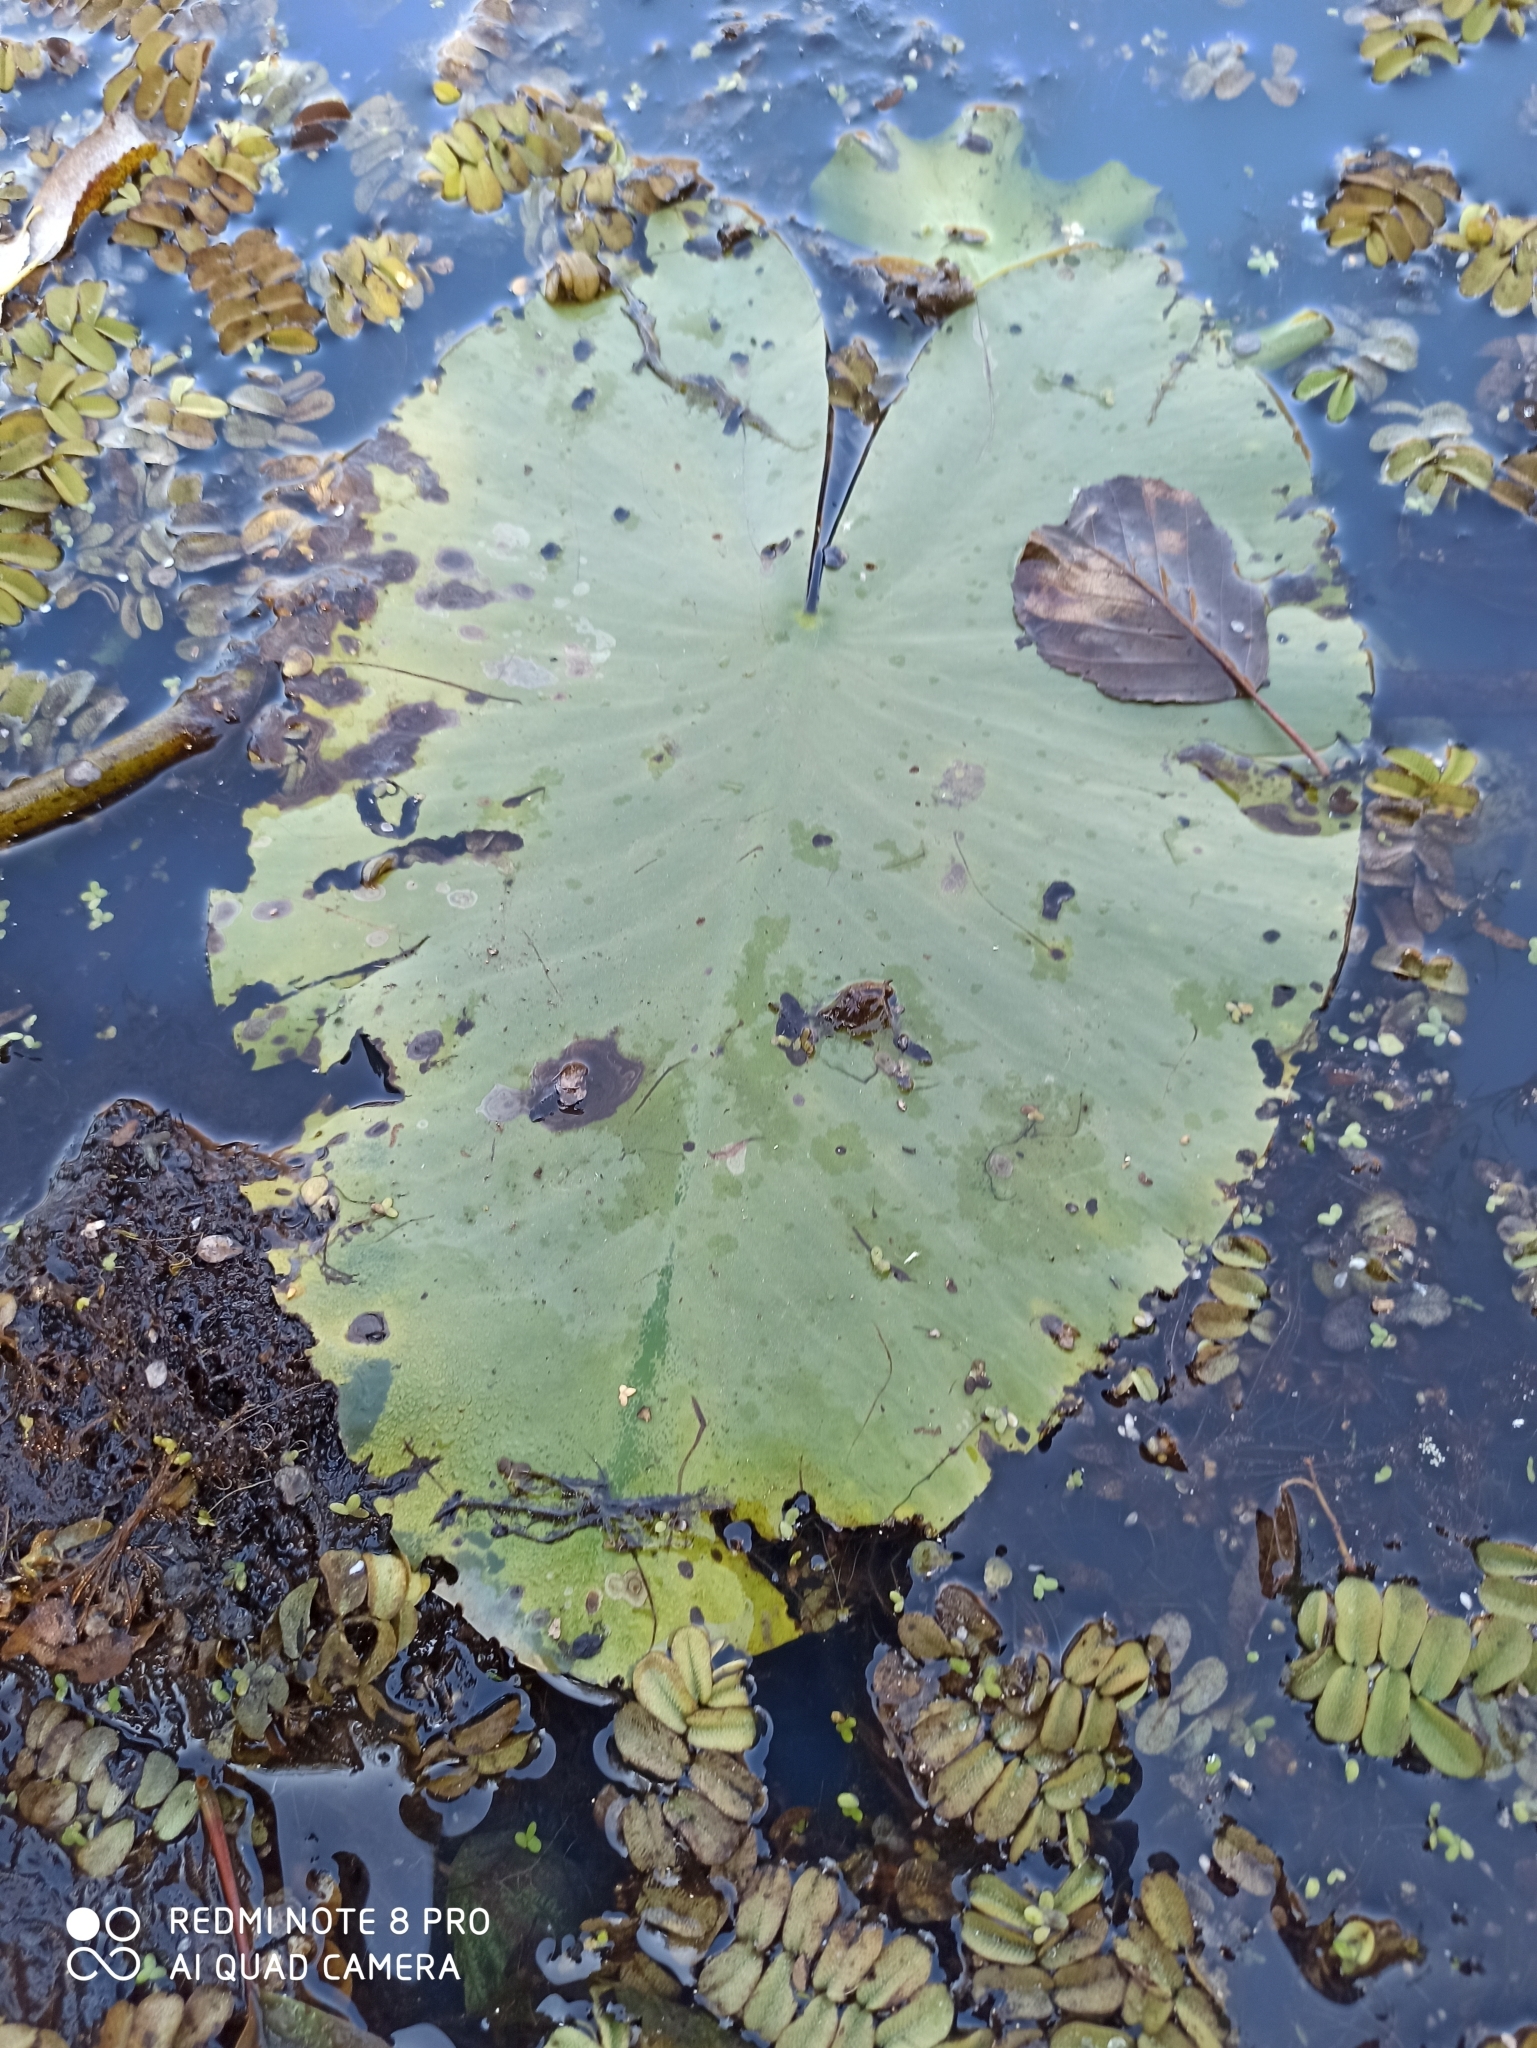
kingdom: Plantae
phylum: Tracheophyta
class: Magnoliopsida
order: Nymphaeales
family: Nymphaeaceae
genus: Nuphar
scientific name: Nuphar lutea
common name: Yellow water-lily
